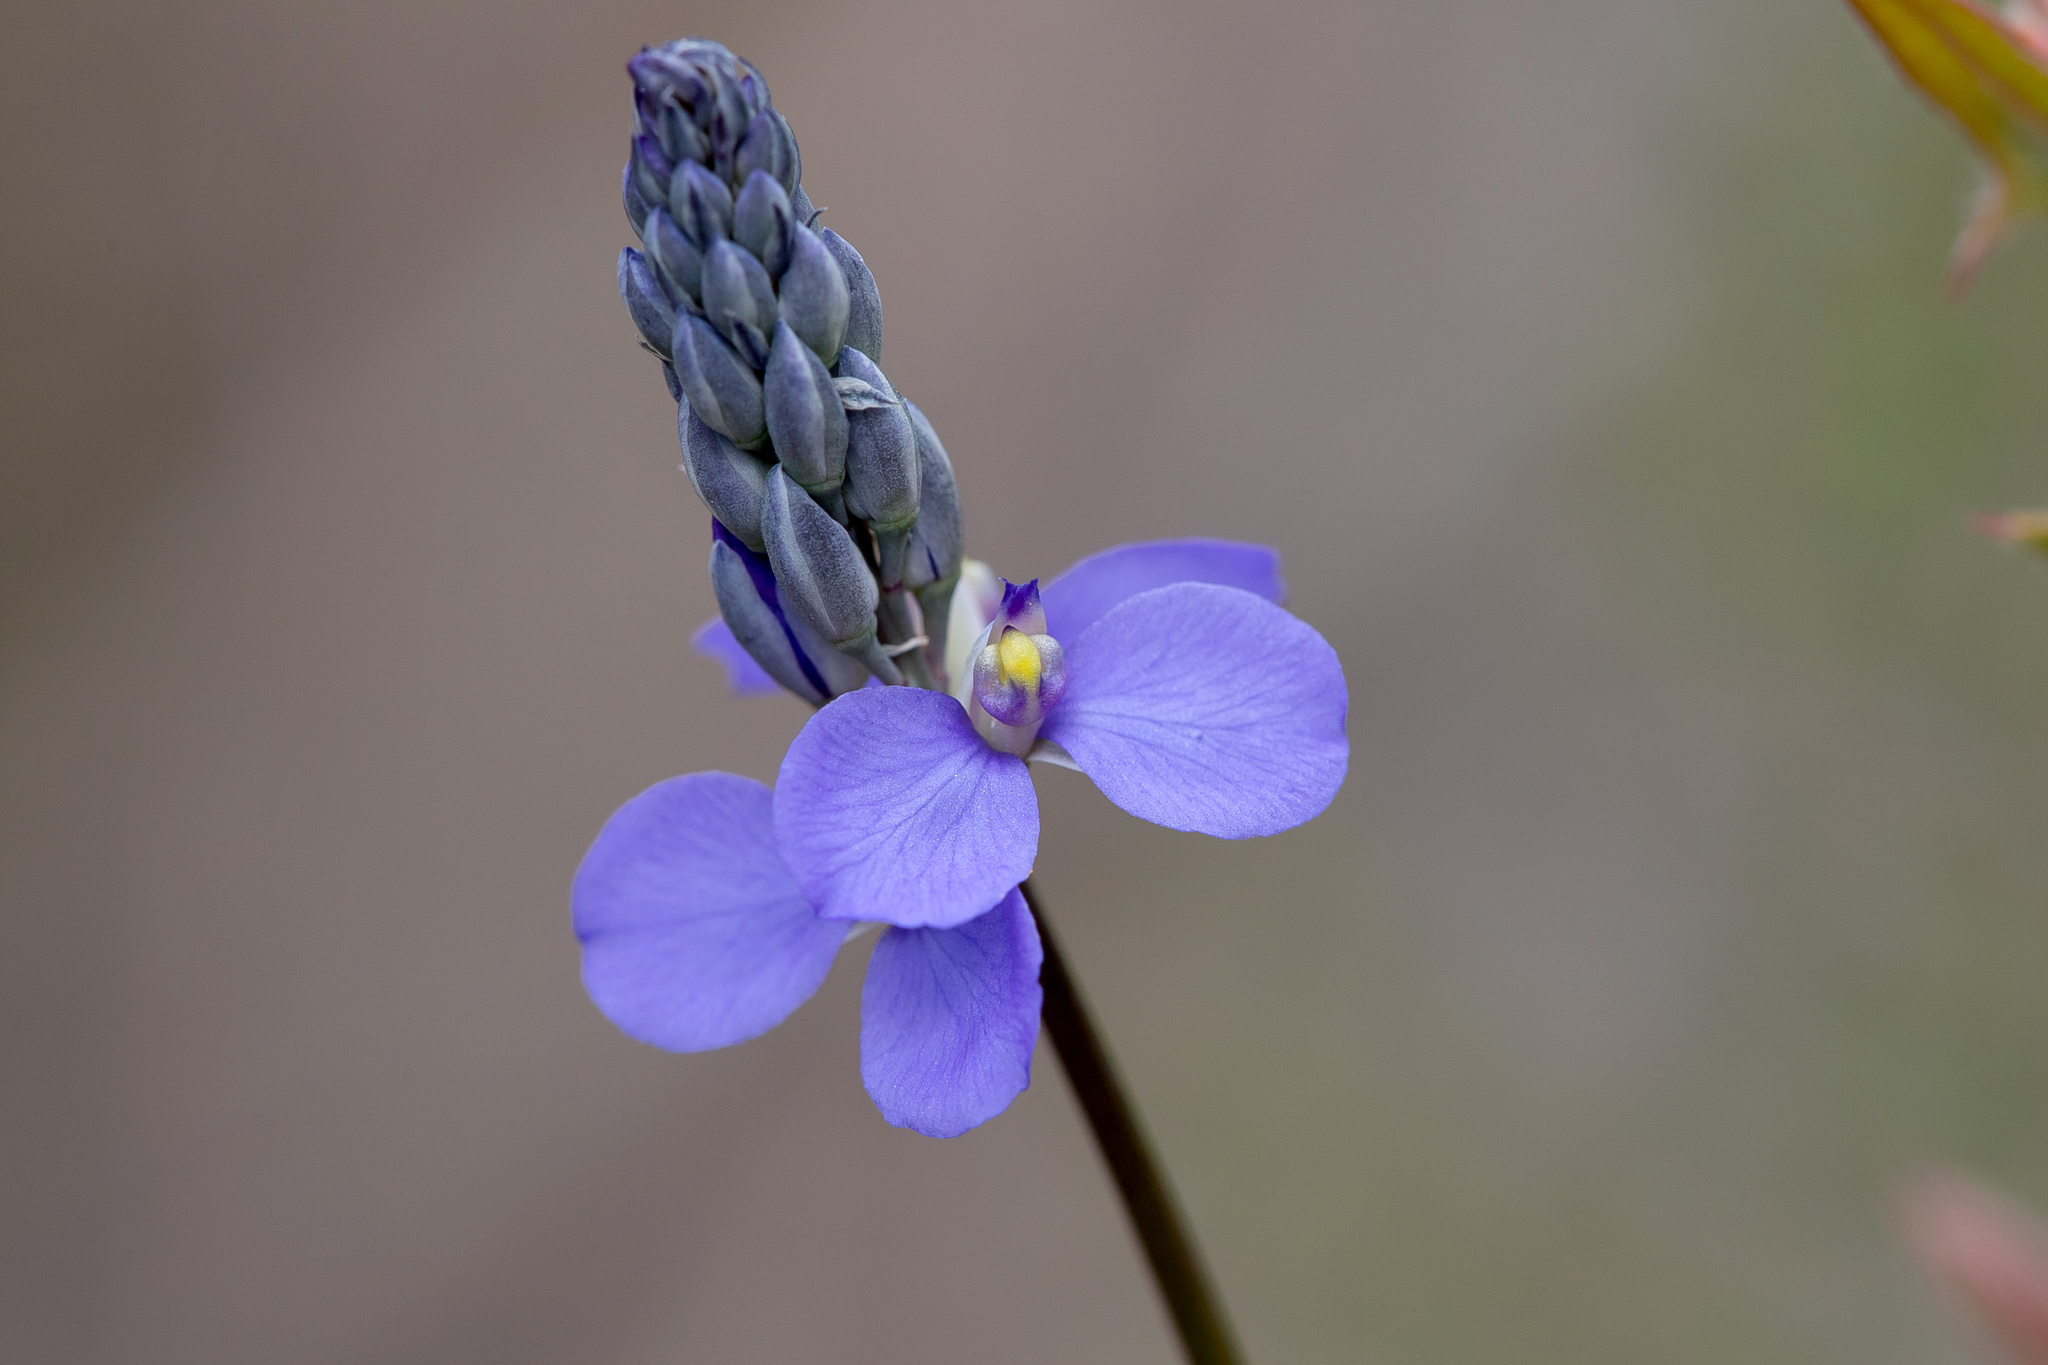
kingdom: Plantae
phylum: Tracheophyta
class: Magnoliopsida
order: Fabales
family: Polygalaceae
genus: Comesperma
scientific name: Comesperma calymega
